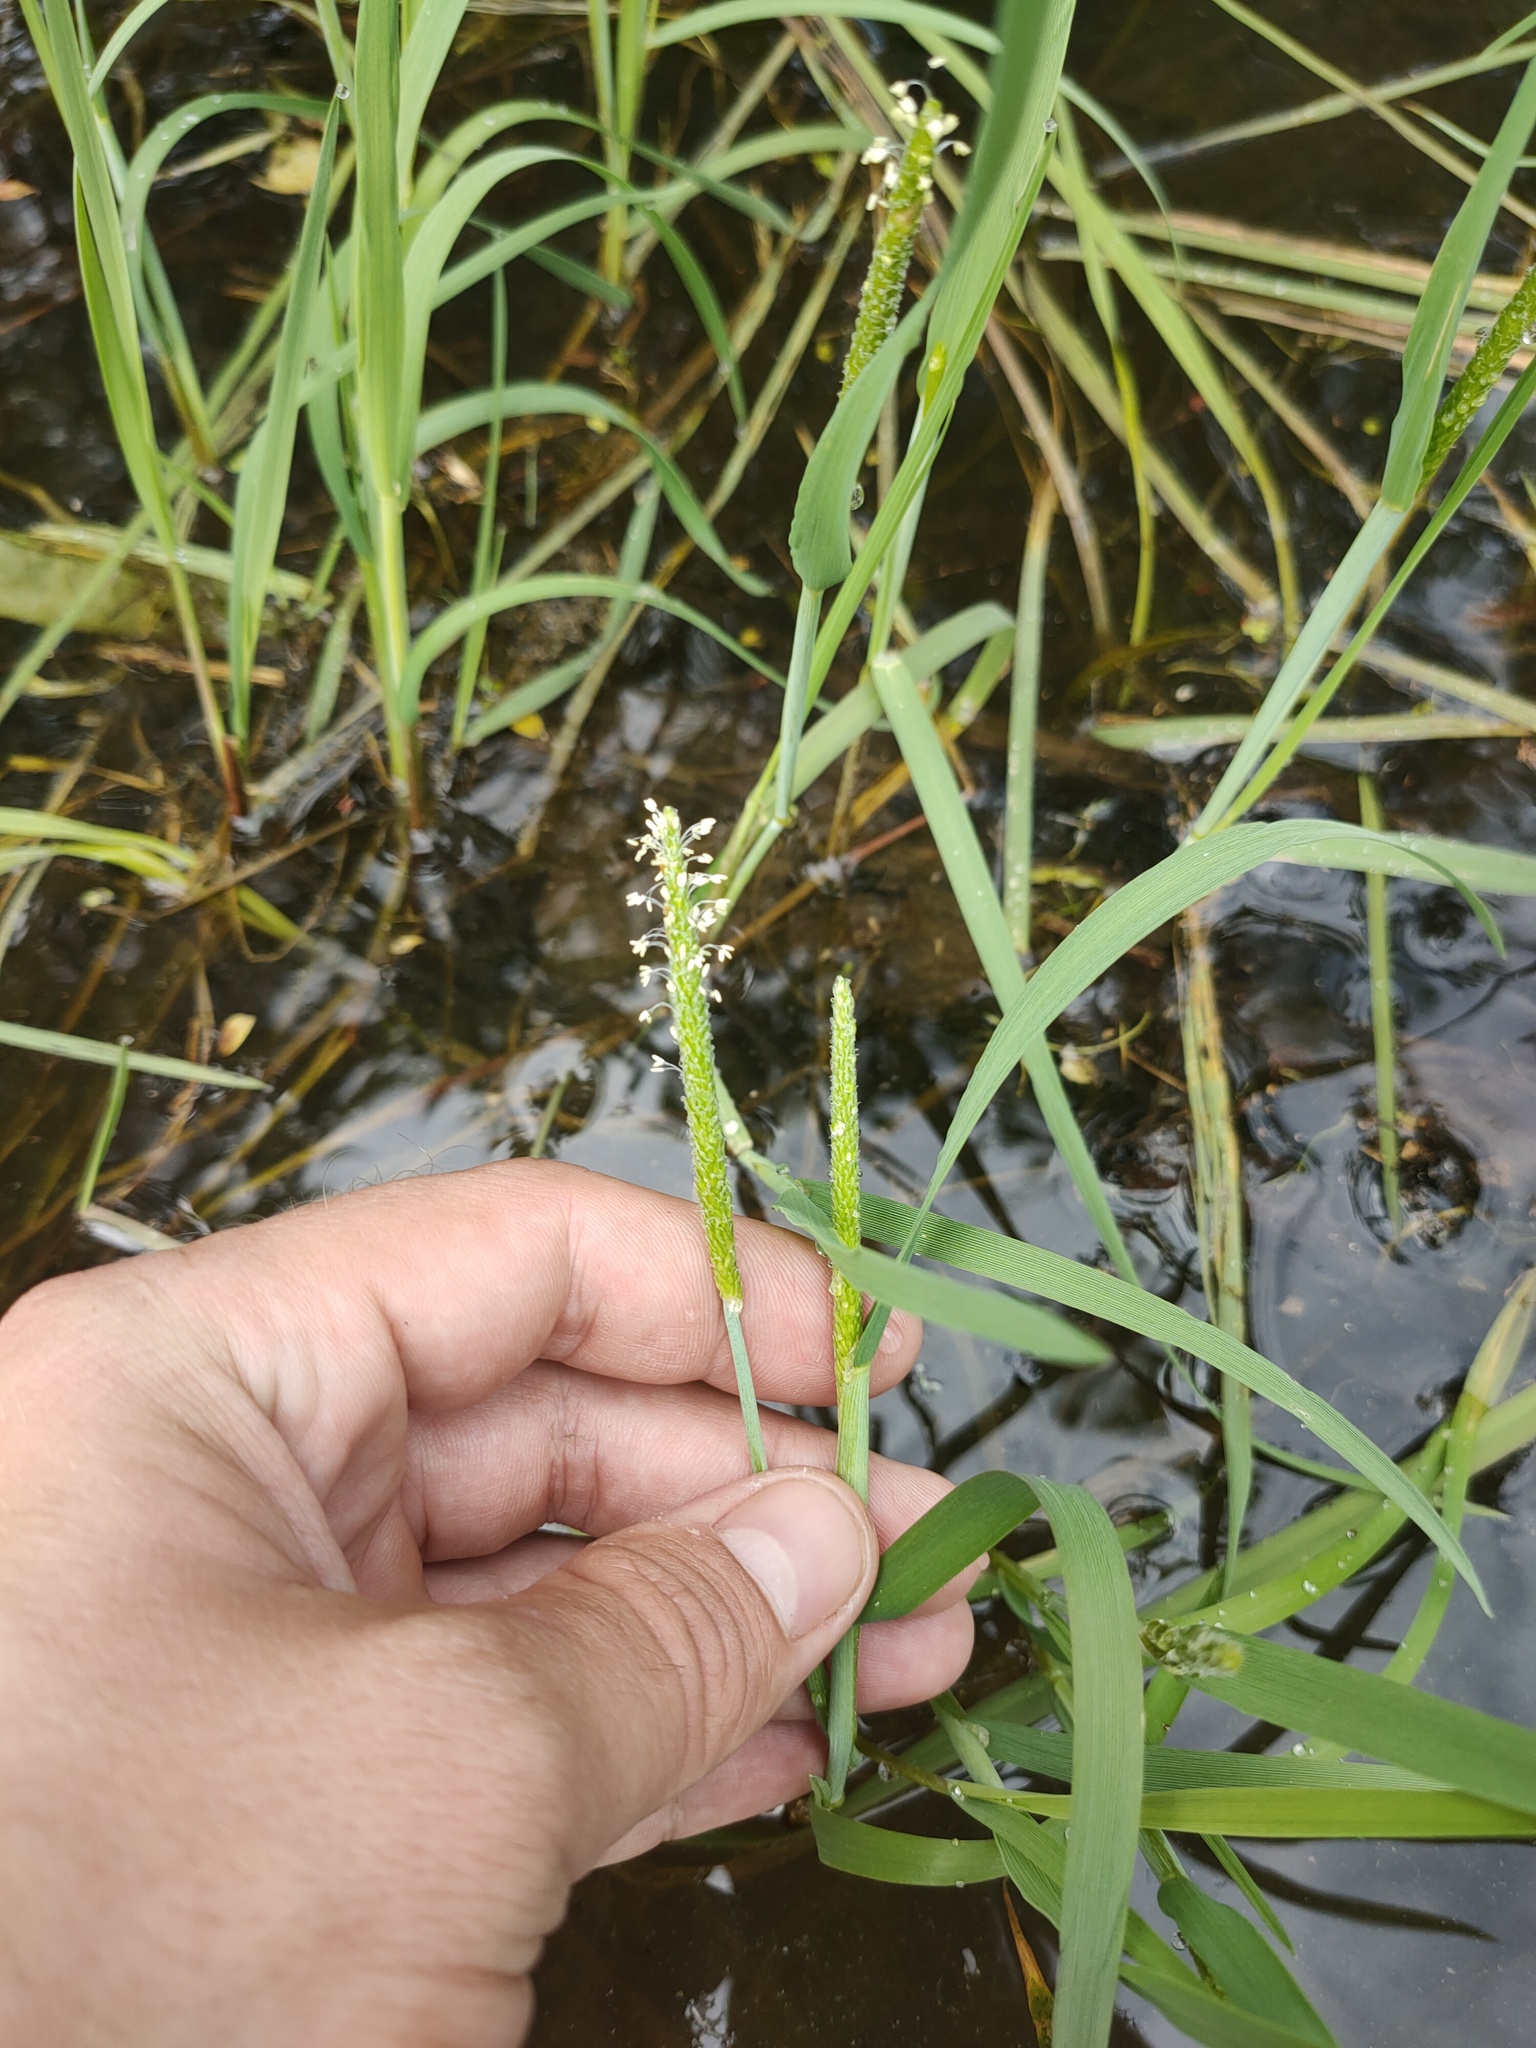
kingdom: Plantae
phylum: Tracheophyta
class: Liliopsida
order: Poales
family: Poaceae
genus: Alopecurus
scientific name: Alopecurus aequalis
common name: Orange foxtail
